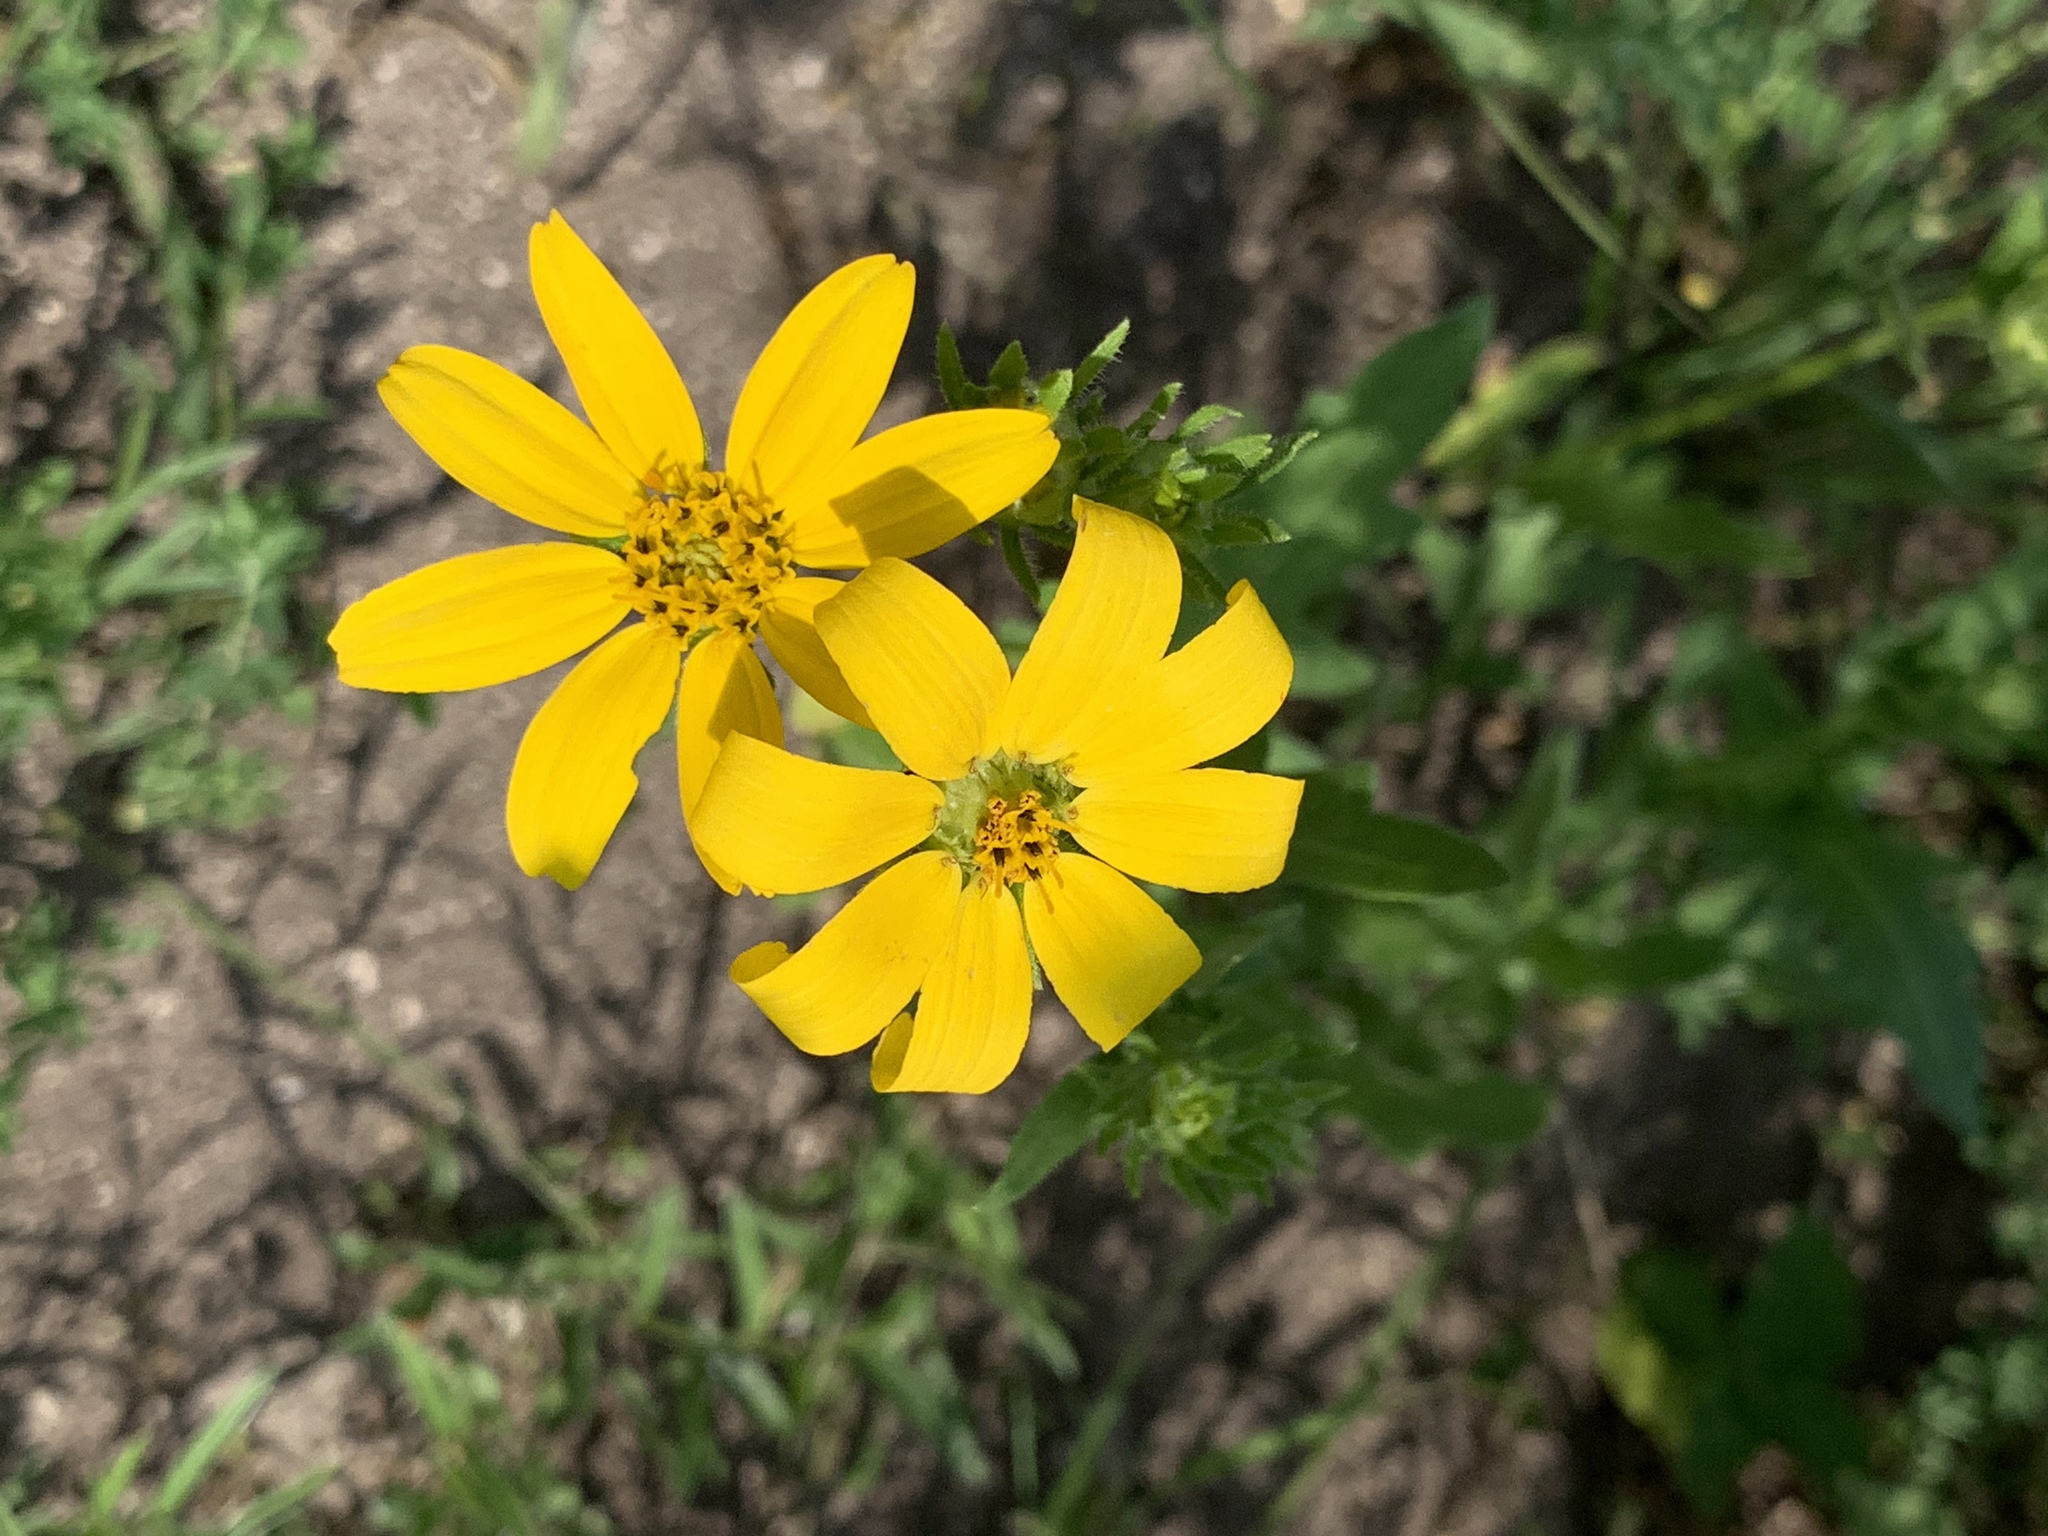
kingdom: Plantae
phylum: Tracheophyta
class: Magnoliopsida
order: Asterales
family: Asteraceae
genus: Engelmannia
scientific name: Engelmannia peristenia
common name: Engelmann's daisy
